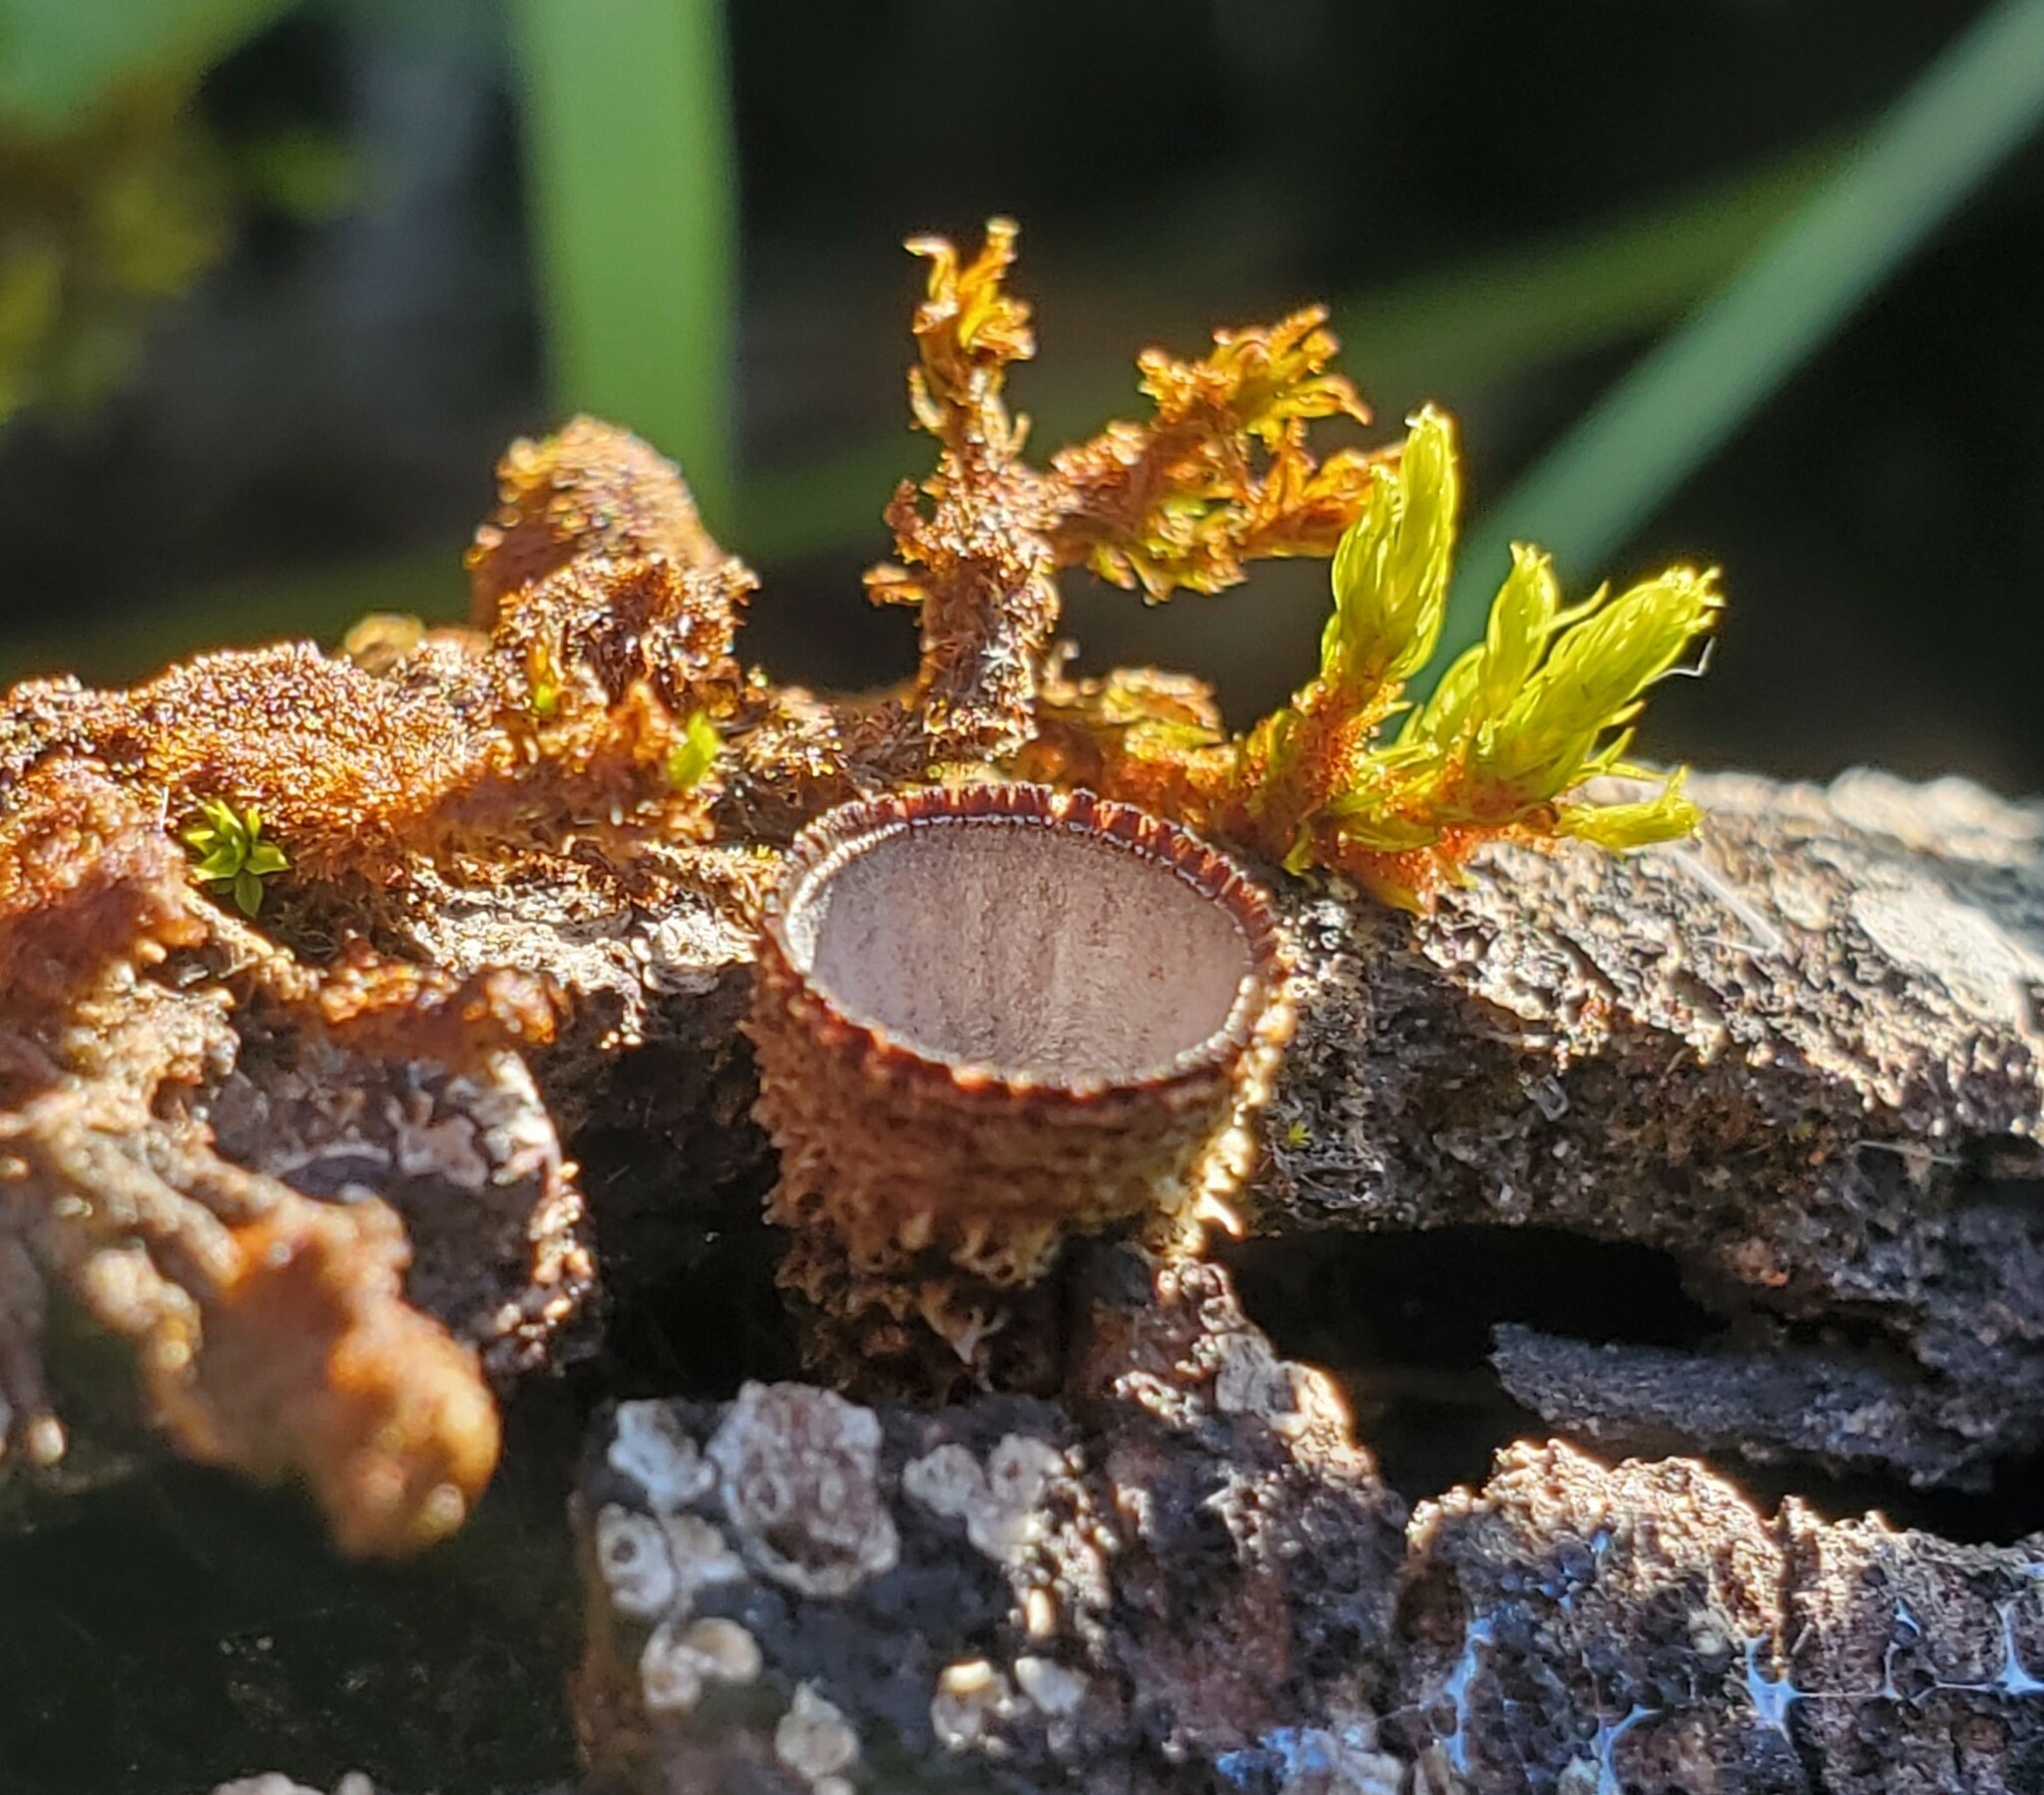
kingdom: Fungi
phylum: Basidiomycota
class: Agaricomycetes
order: Agaricales
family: Agaricaceae
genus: Cyathus
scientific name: Cyathus striatus
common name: Fluted bird's nest
